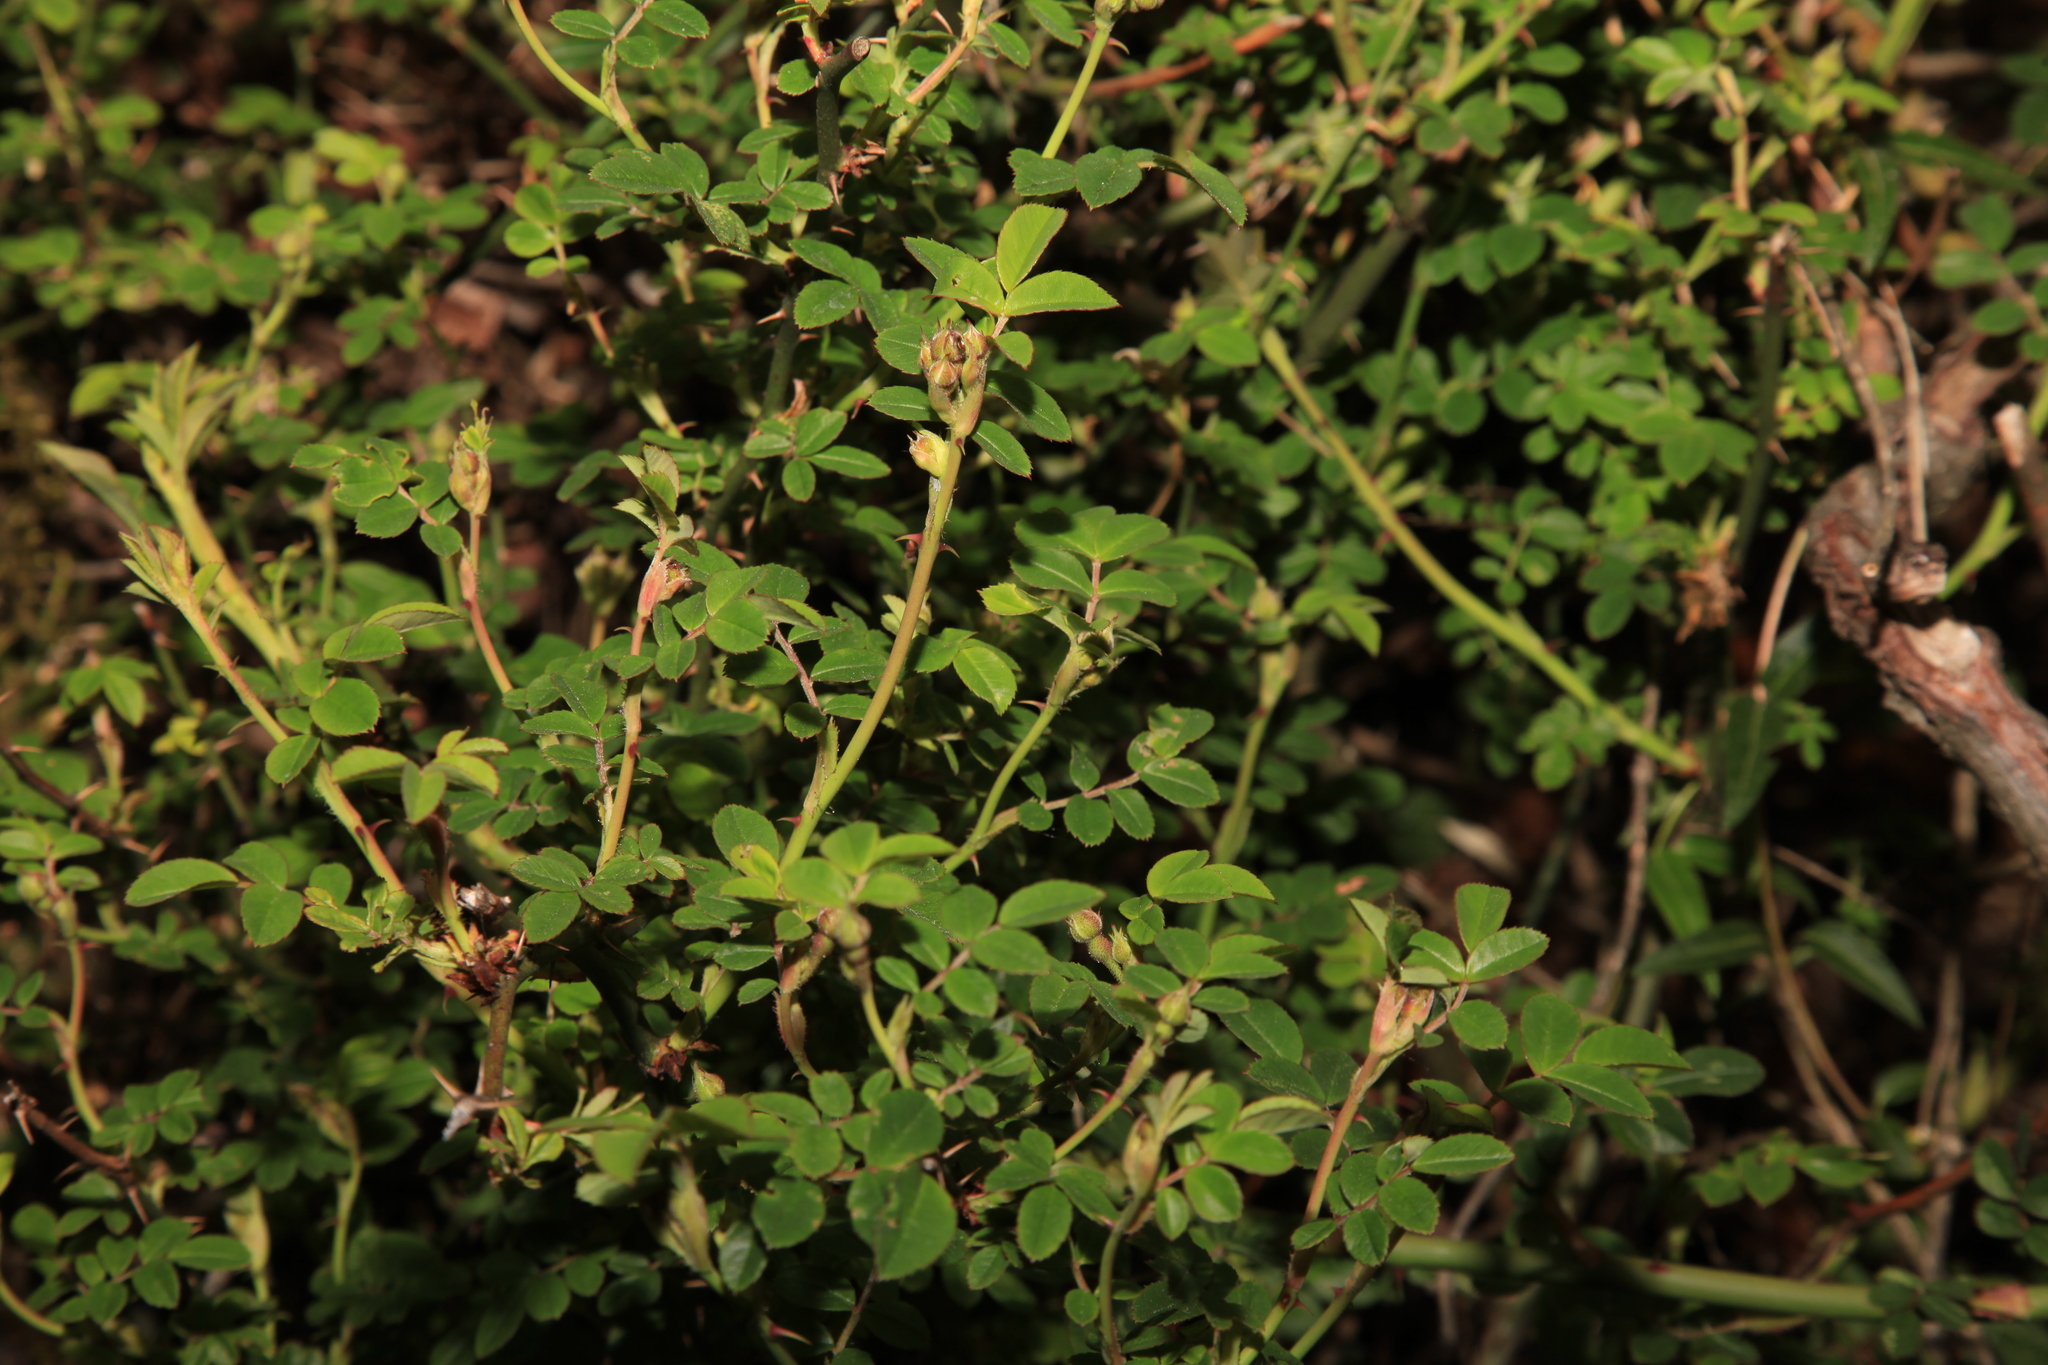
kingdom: Plantae
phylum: Tracheophyta
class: Magnoliopsida
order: Rosales
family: Rosaceae
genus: Rosa
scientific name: Rosa transmorrisonensis
